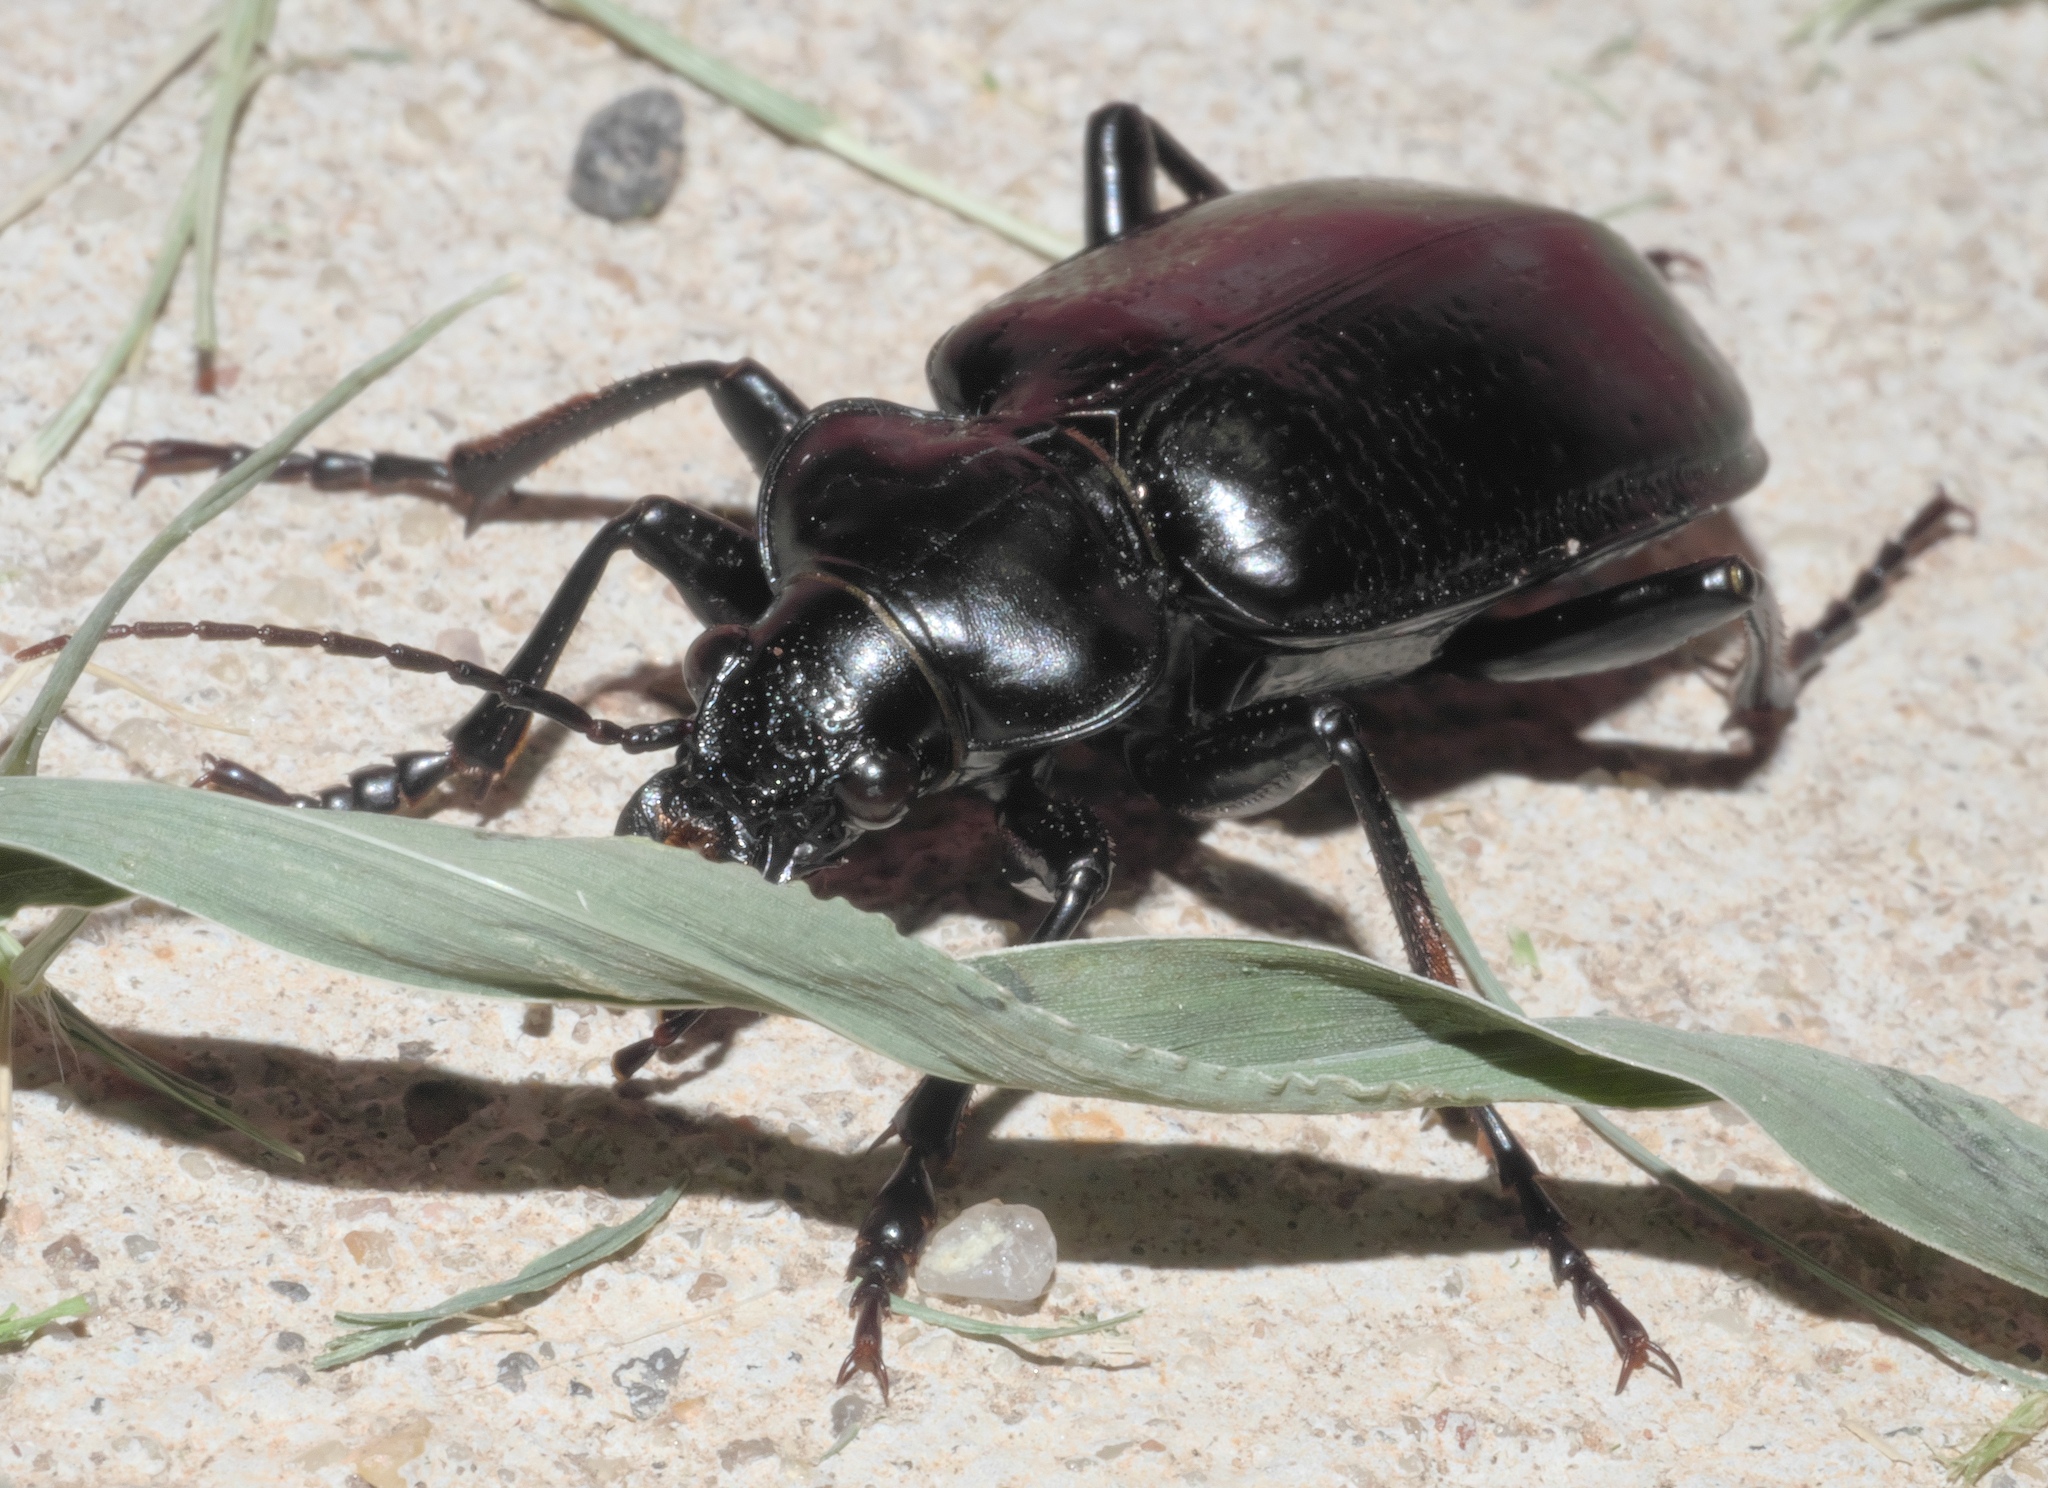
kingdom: Animalia
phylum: Arthropoda
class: Insecta
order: Coleoptera
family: Carabidae
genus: Calosoma
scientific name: Calosoma marginale
